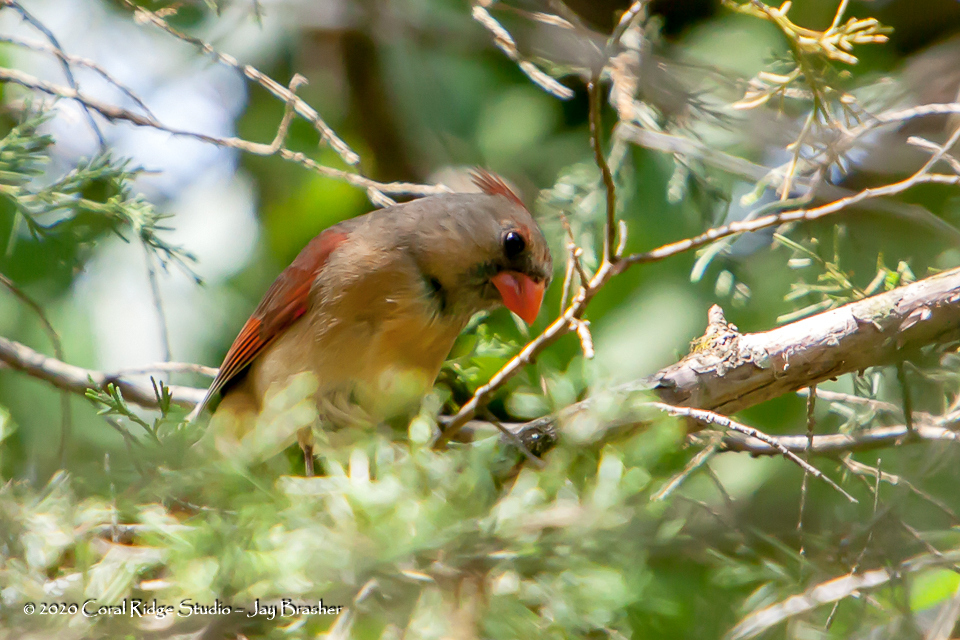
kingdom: Animalia
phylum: Chordata
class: Aves
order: Passeriformes
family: Cardinalidae
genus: Cardinalis
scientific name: Cardinalis cardinalis
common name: Northern cardinal
